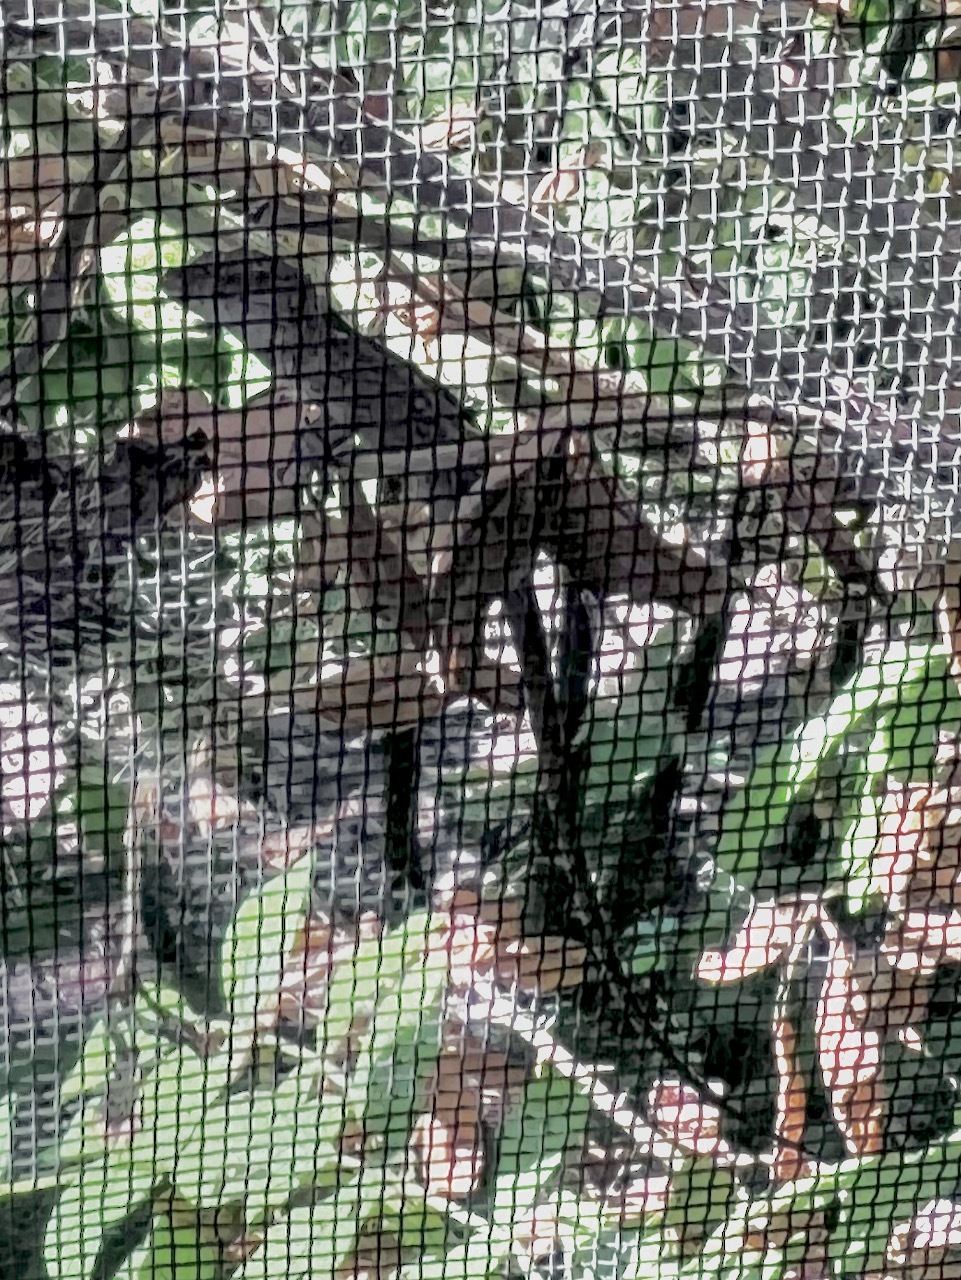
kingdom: Animalia
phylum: Chordata
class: Squamata
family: Dactyloidae
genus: Anolis
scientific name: Anolis sagrei
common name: Brown anole
